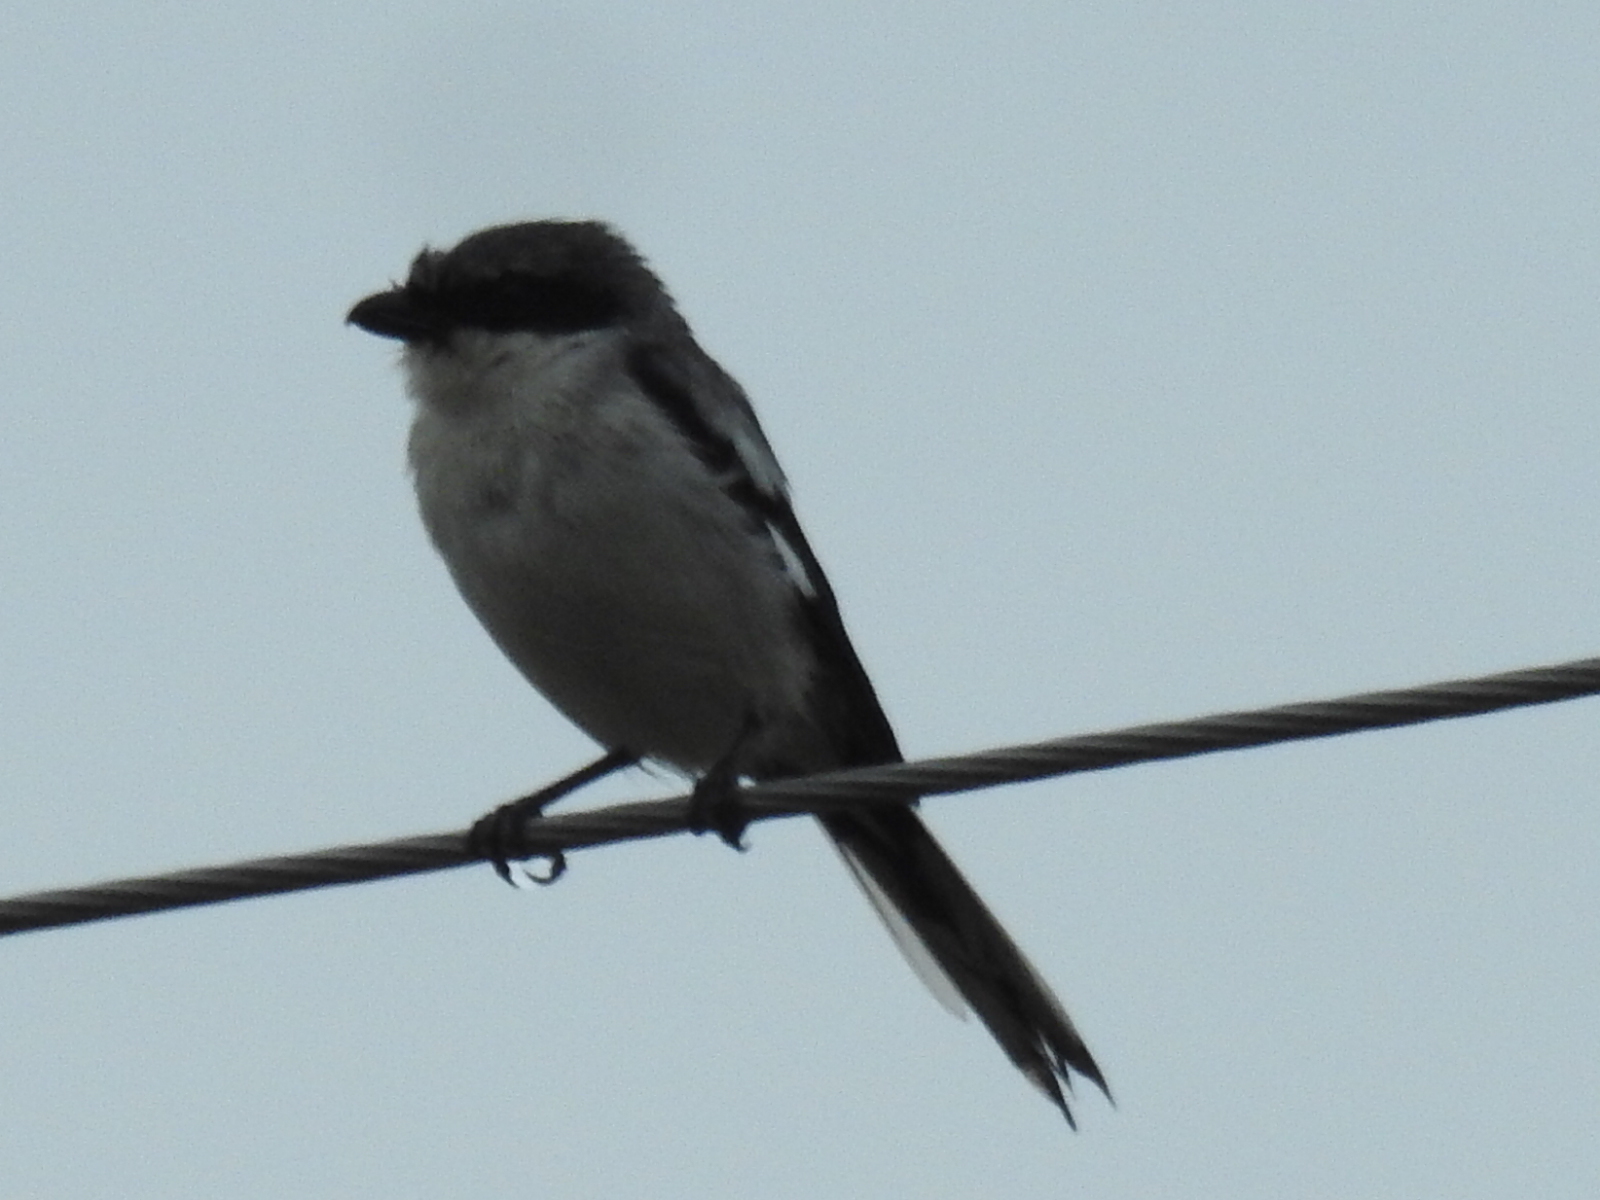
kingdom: Animalia
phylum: Chordata
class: Aves
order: Passeriformes
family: Laniidae
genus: Lanius
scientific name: Lanius ludovicianus
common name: Loggerhead shrike
